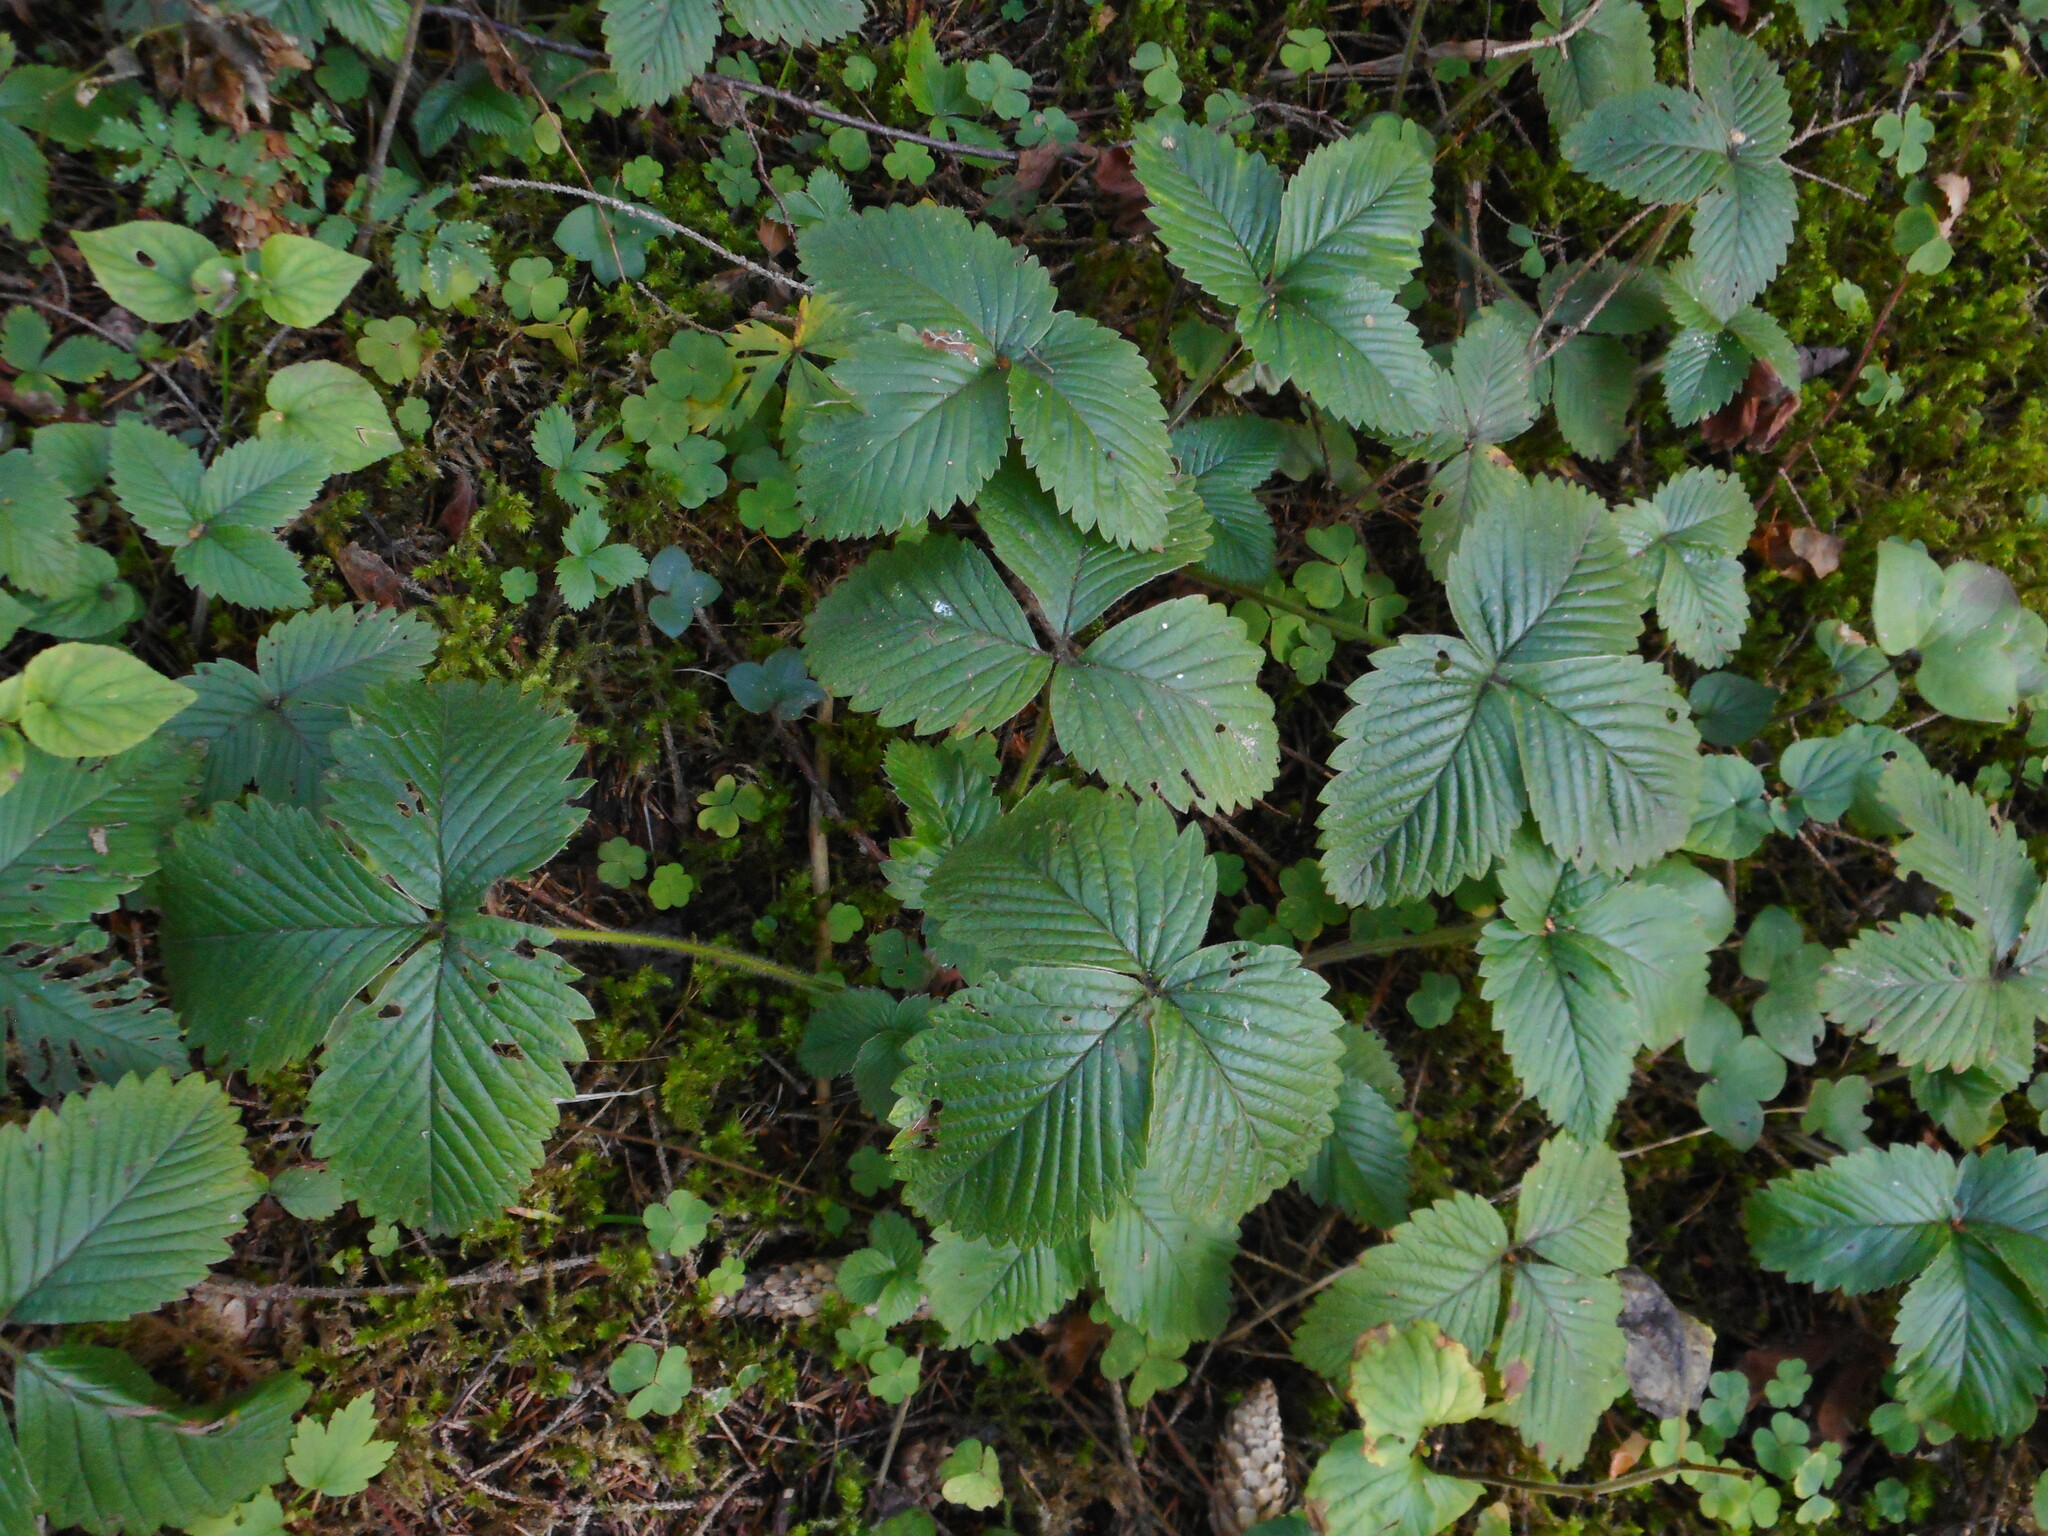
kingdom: Plantae
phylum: Tracheophyta
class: Magnoliopsida
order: Rosales
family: Rosaceae
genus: Fragaria
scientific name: Fragaria moschata
